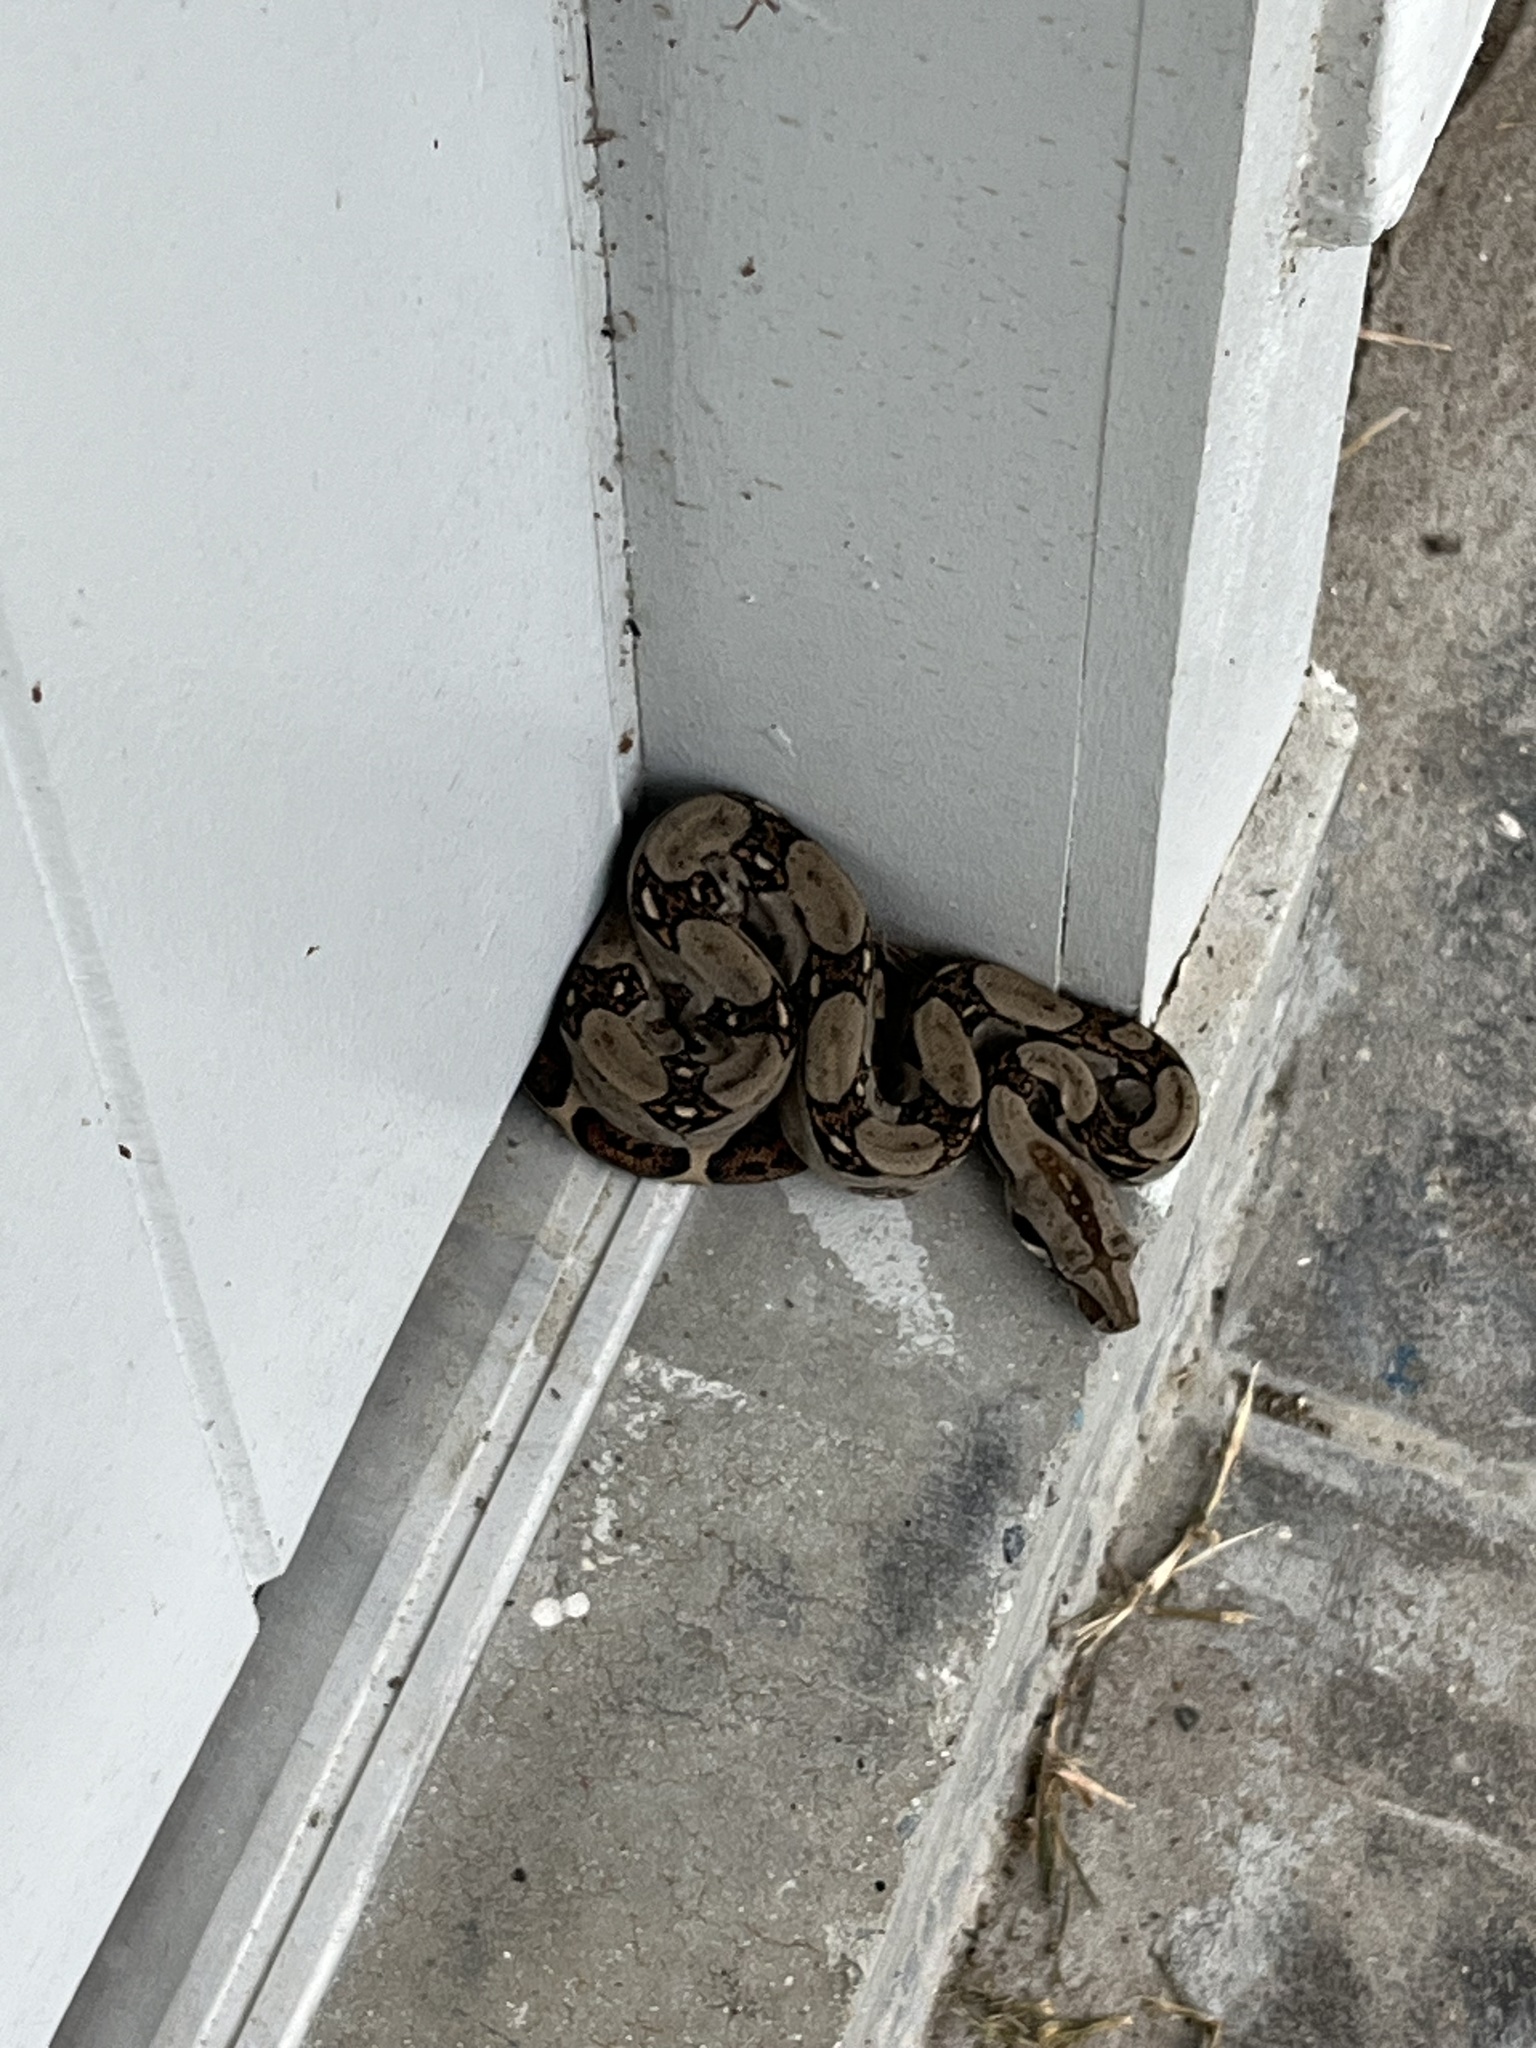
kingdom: Animalia
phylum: Chordata
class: Squamata
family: Boidae
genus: Boa
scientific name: Boa imperator
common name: Central american boa
